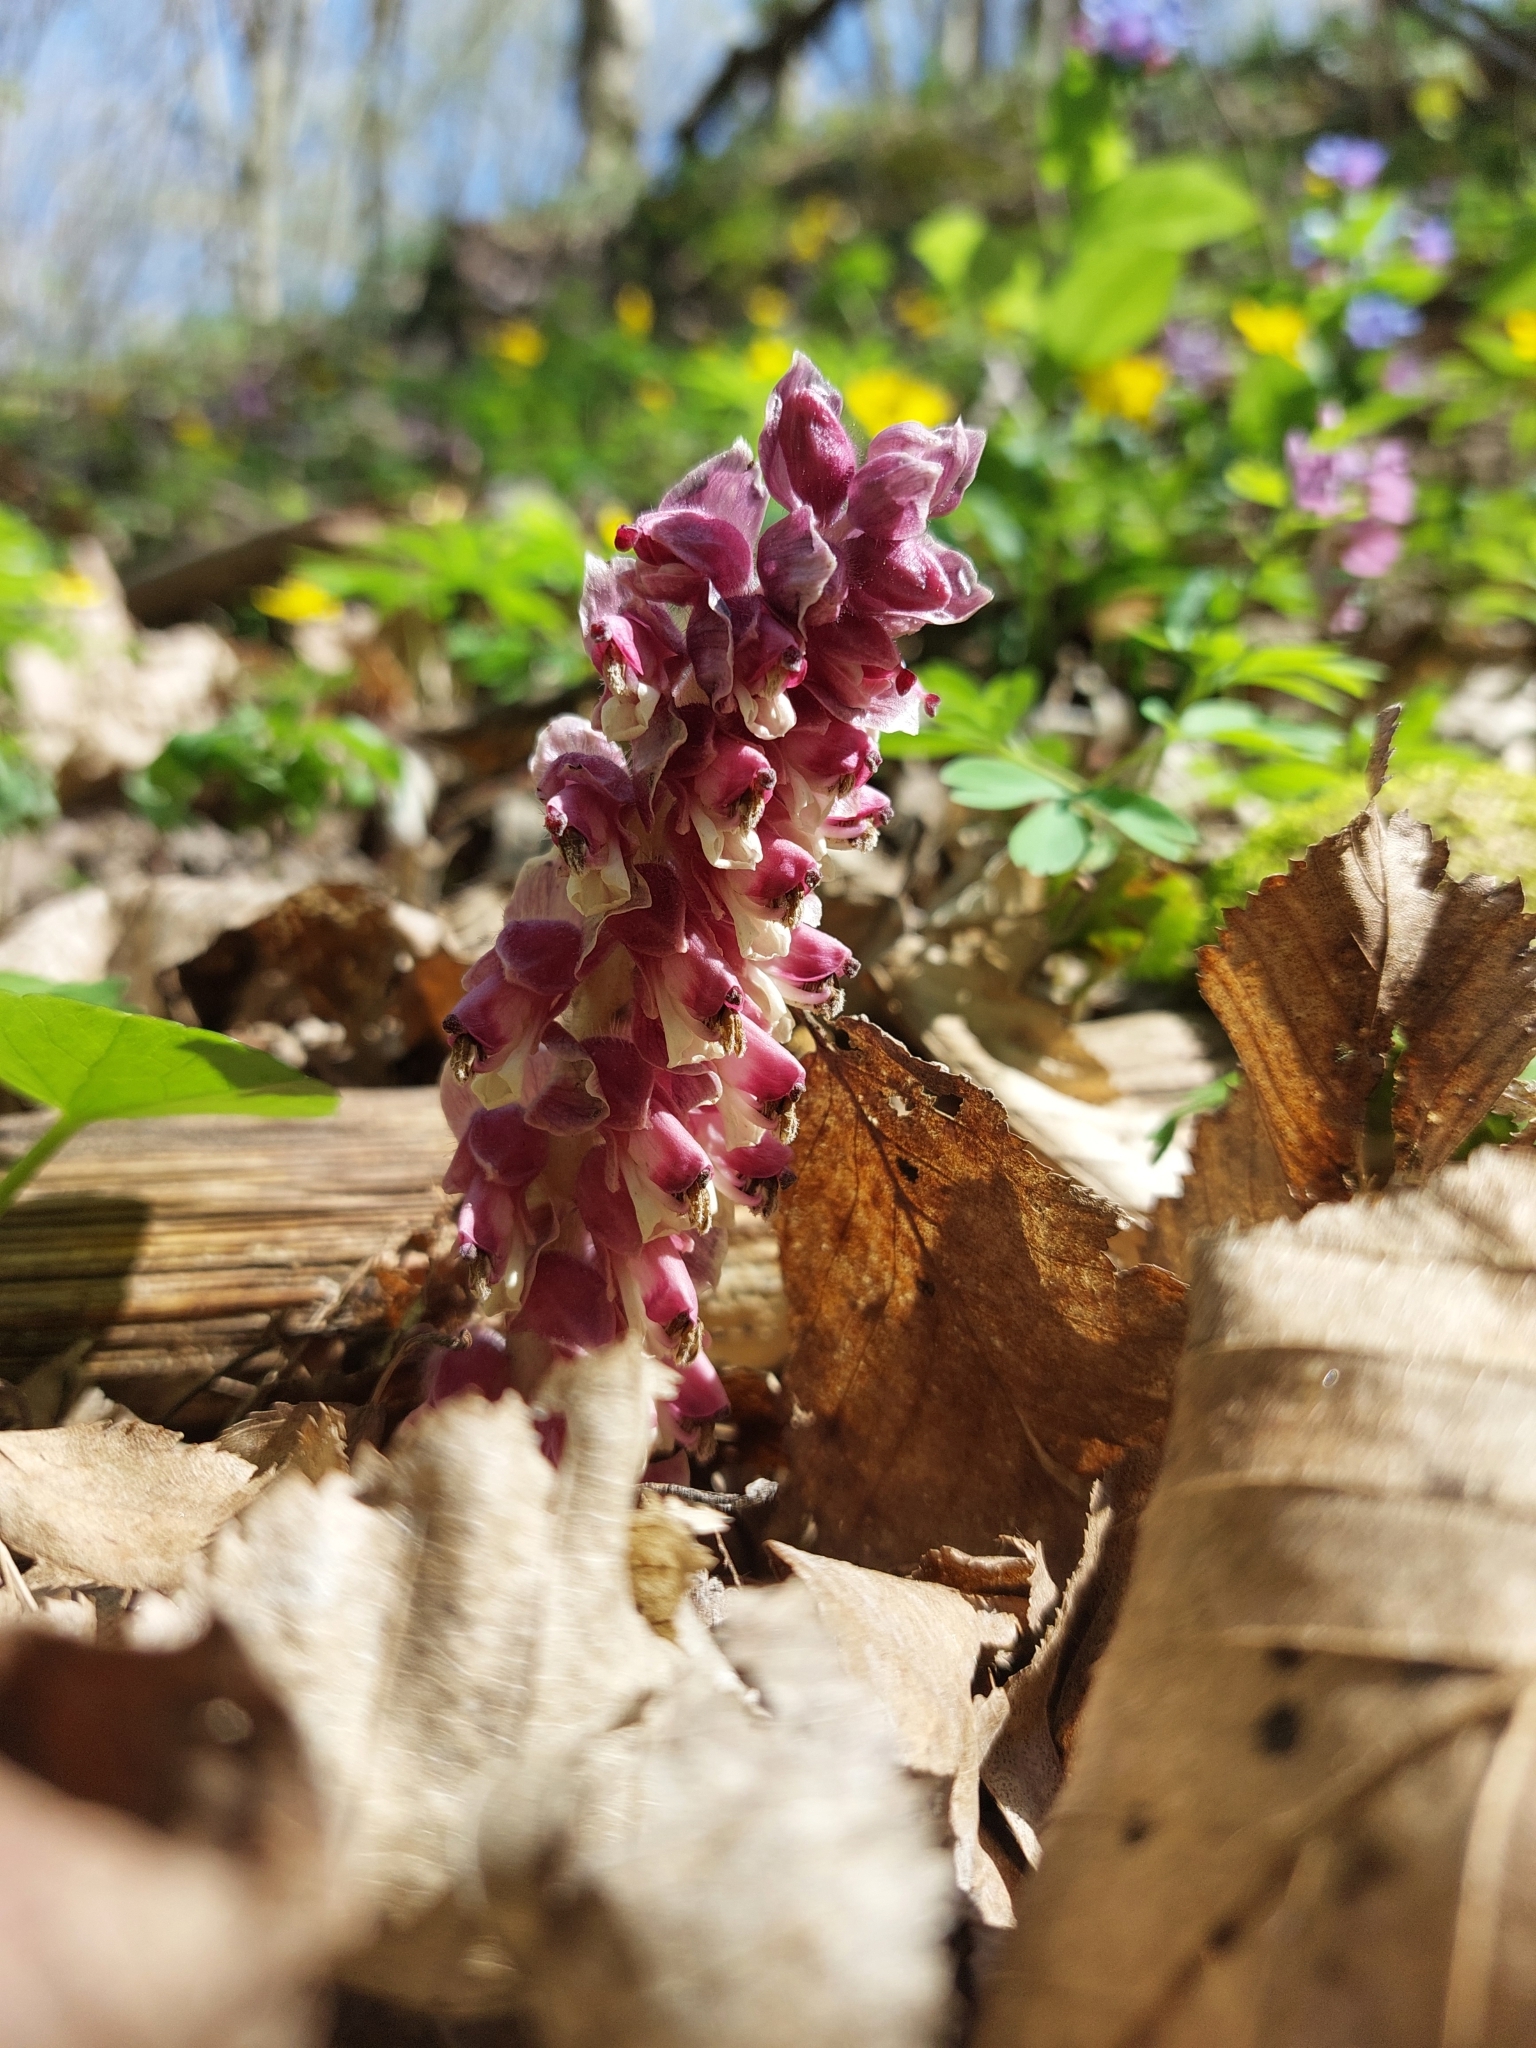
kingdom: Plantae
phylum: Tracheophyta
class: Magnoliopsida
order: Lamiales
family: Orobanchaceae
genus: Lathraea
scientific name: Lathraea squamaria
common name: Toothwort
